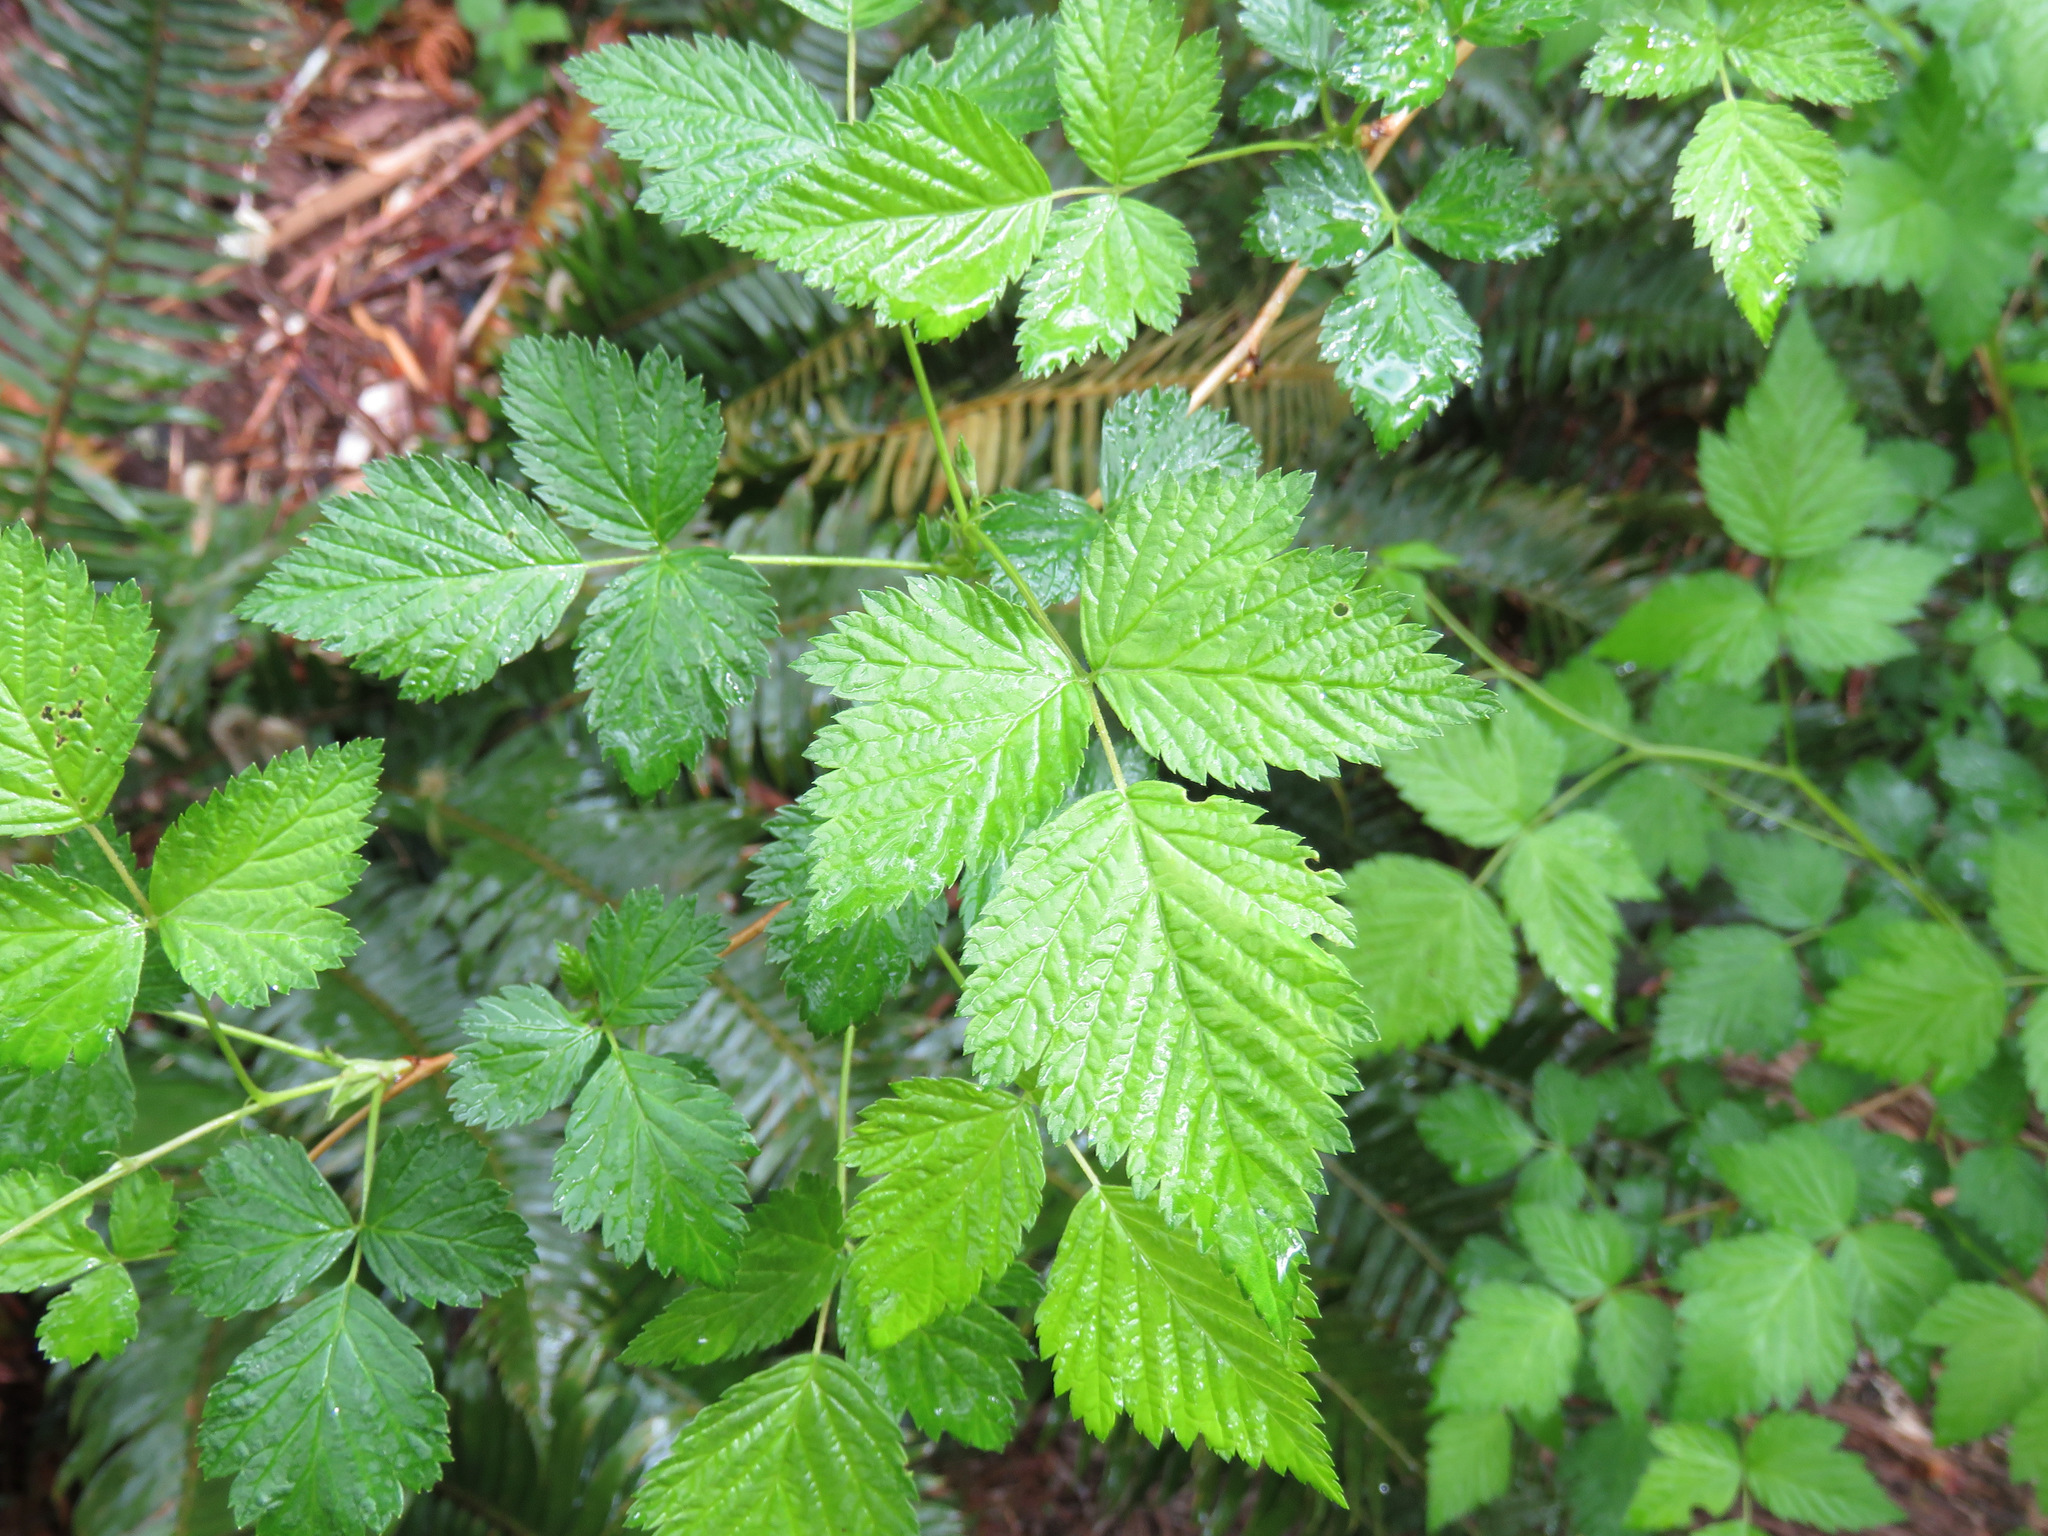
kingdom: Plantae
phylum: Tracheophyta
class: Magnoliopsida
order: Rosales
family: Rosaceae
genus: Rubus
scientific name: Rubus spectabilis
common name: Salmonberry
